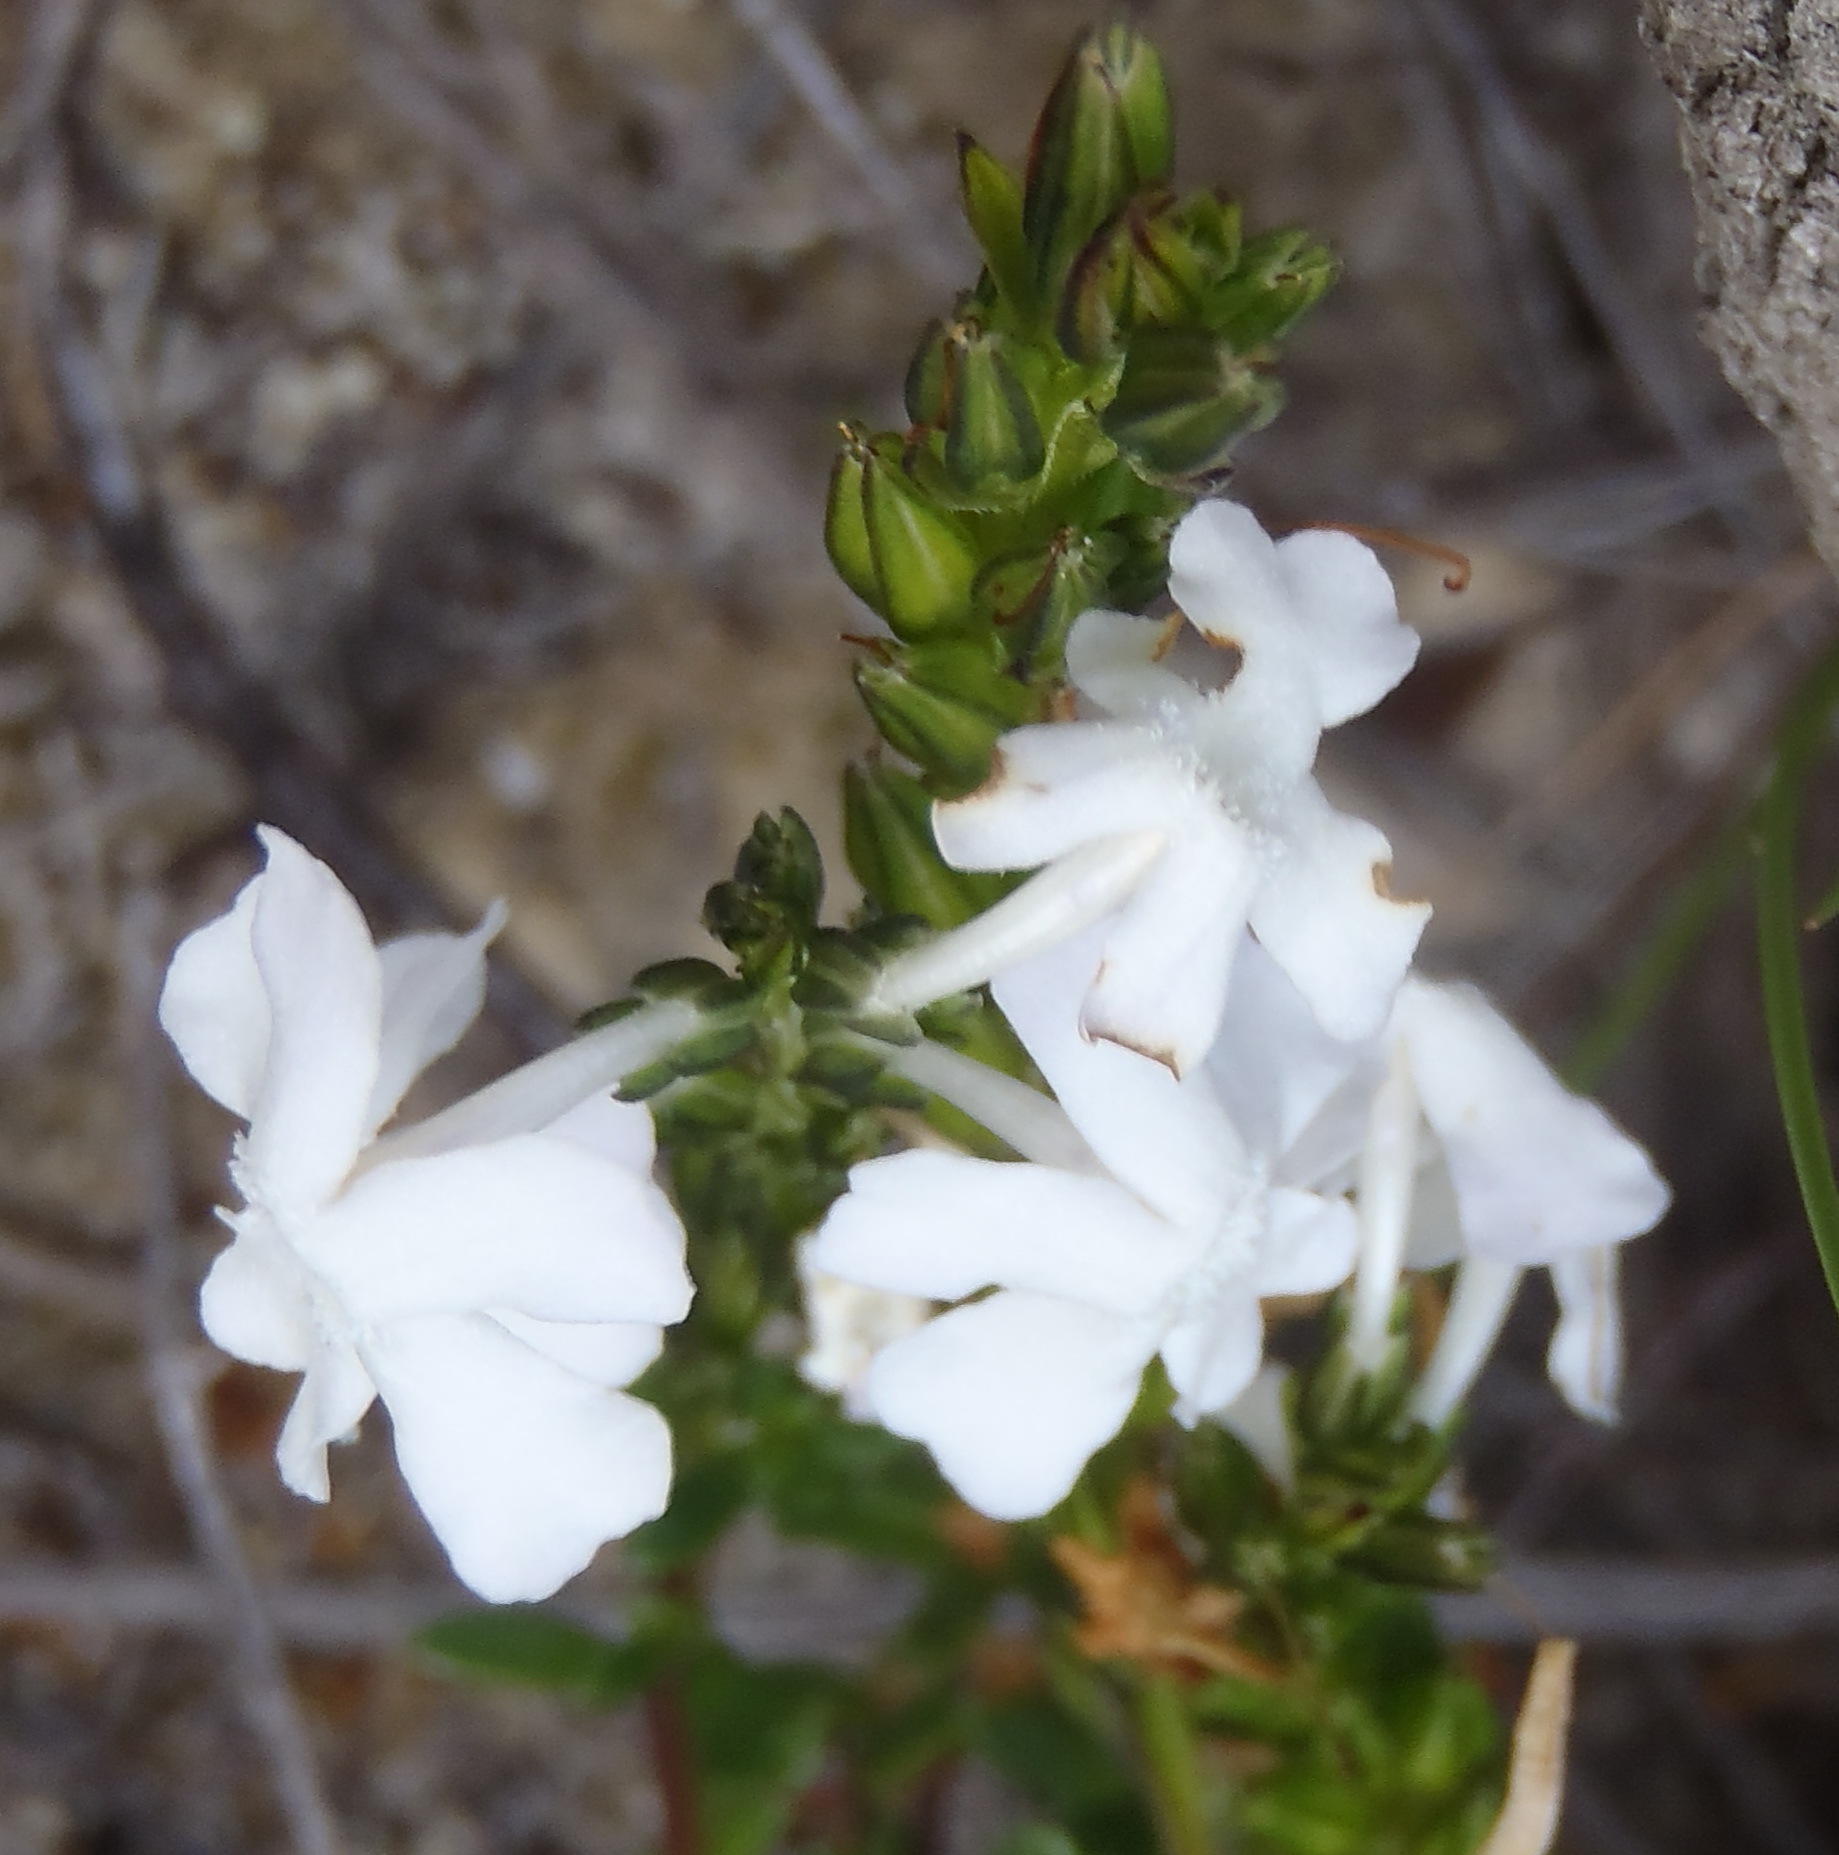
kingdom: Plantae
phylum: Tracheophyta
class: Magnoliopsida
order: Lamiales
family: Verbenaceae
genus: Chascanum
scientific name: Chascanum cernuum
